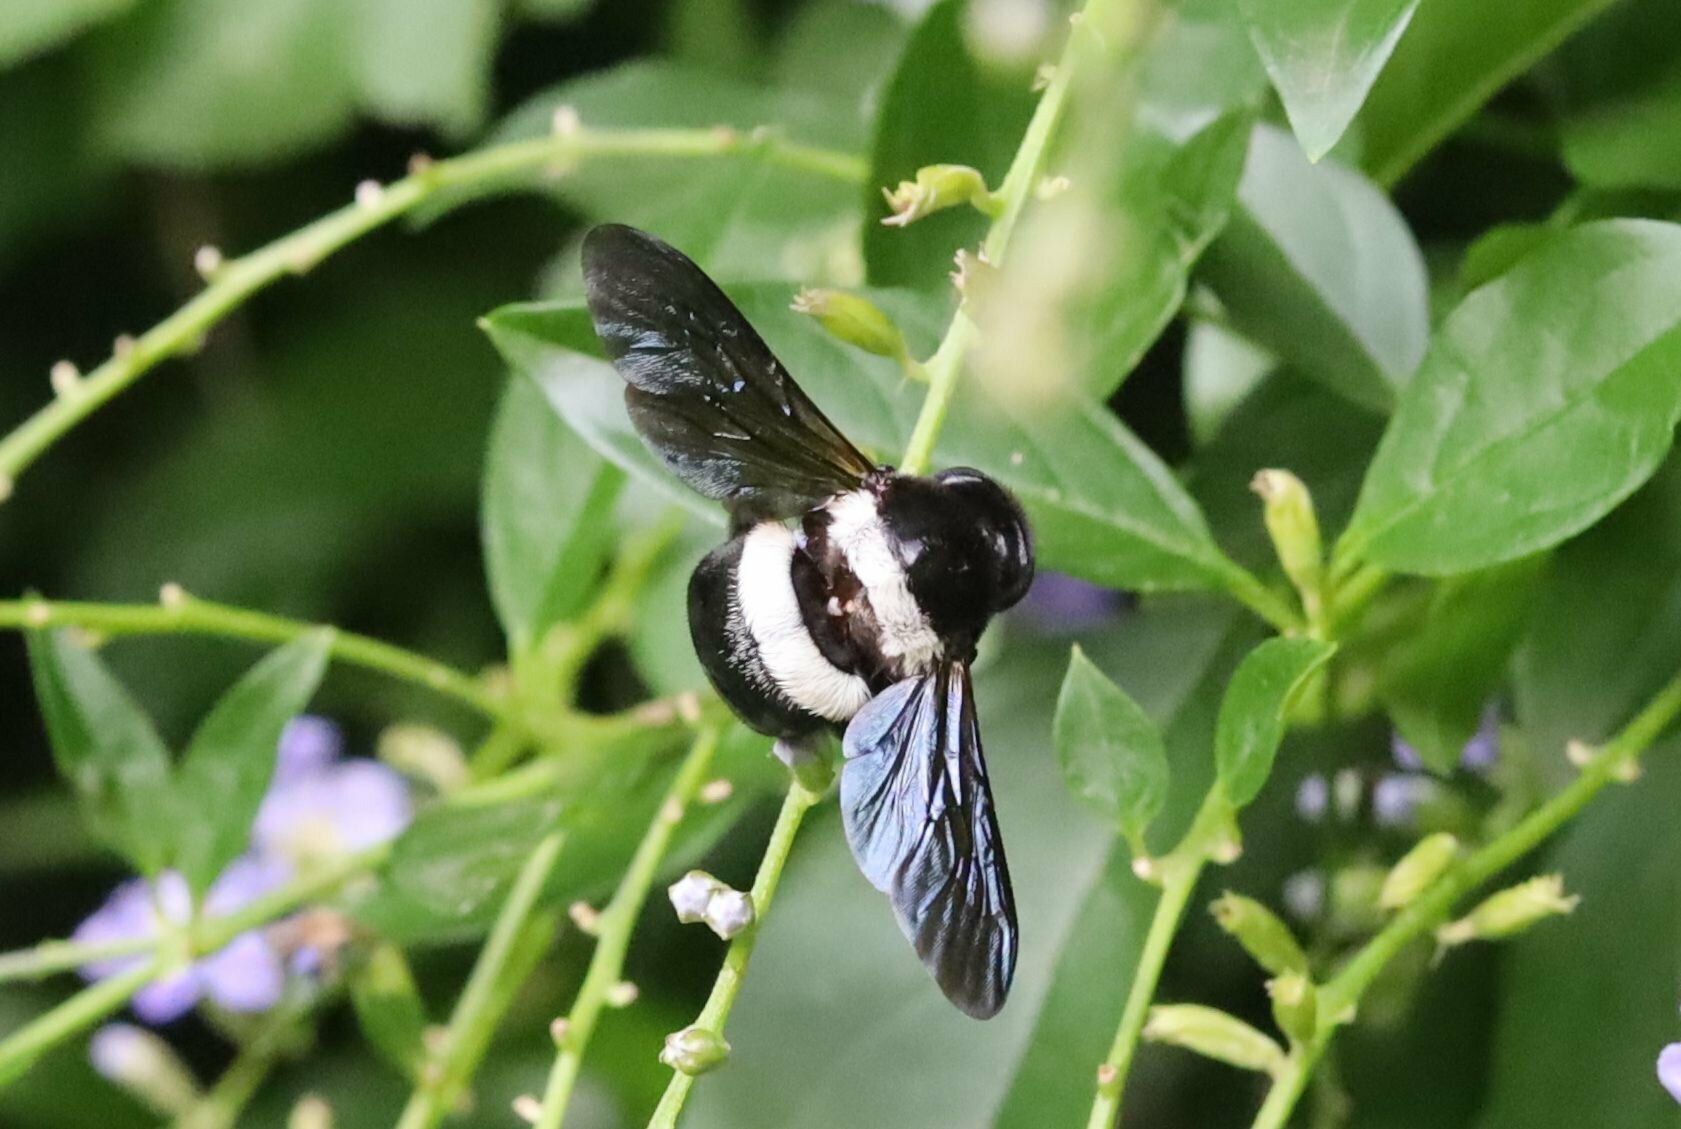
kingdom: Animalia
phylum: Arthropoda
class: Insecta
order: Hymenoptera
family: Apidae
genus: Xylocopa
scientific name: Xylocopa caffra
